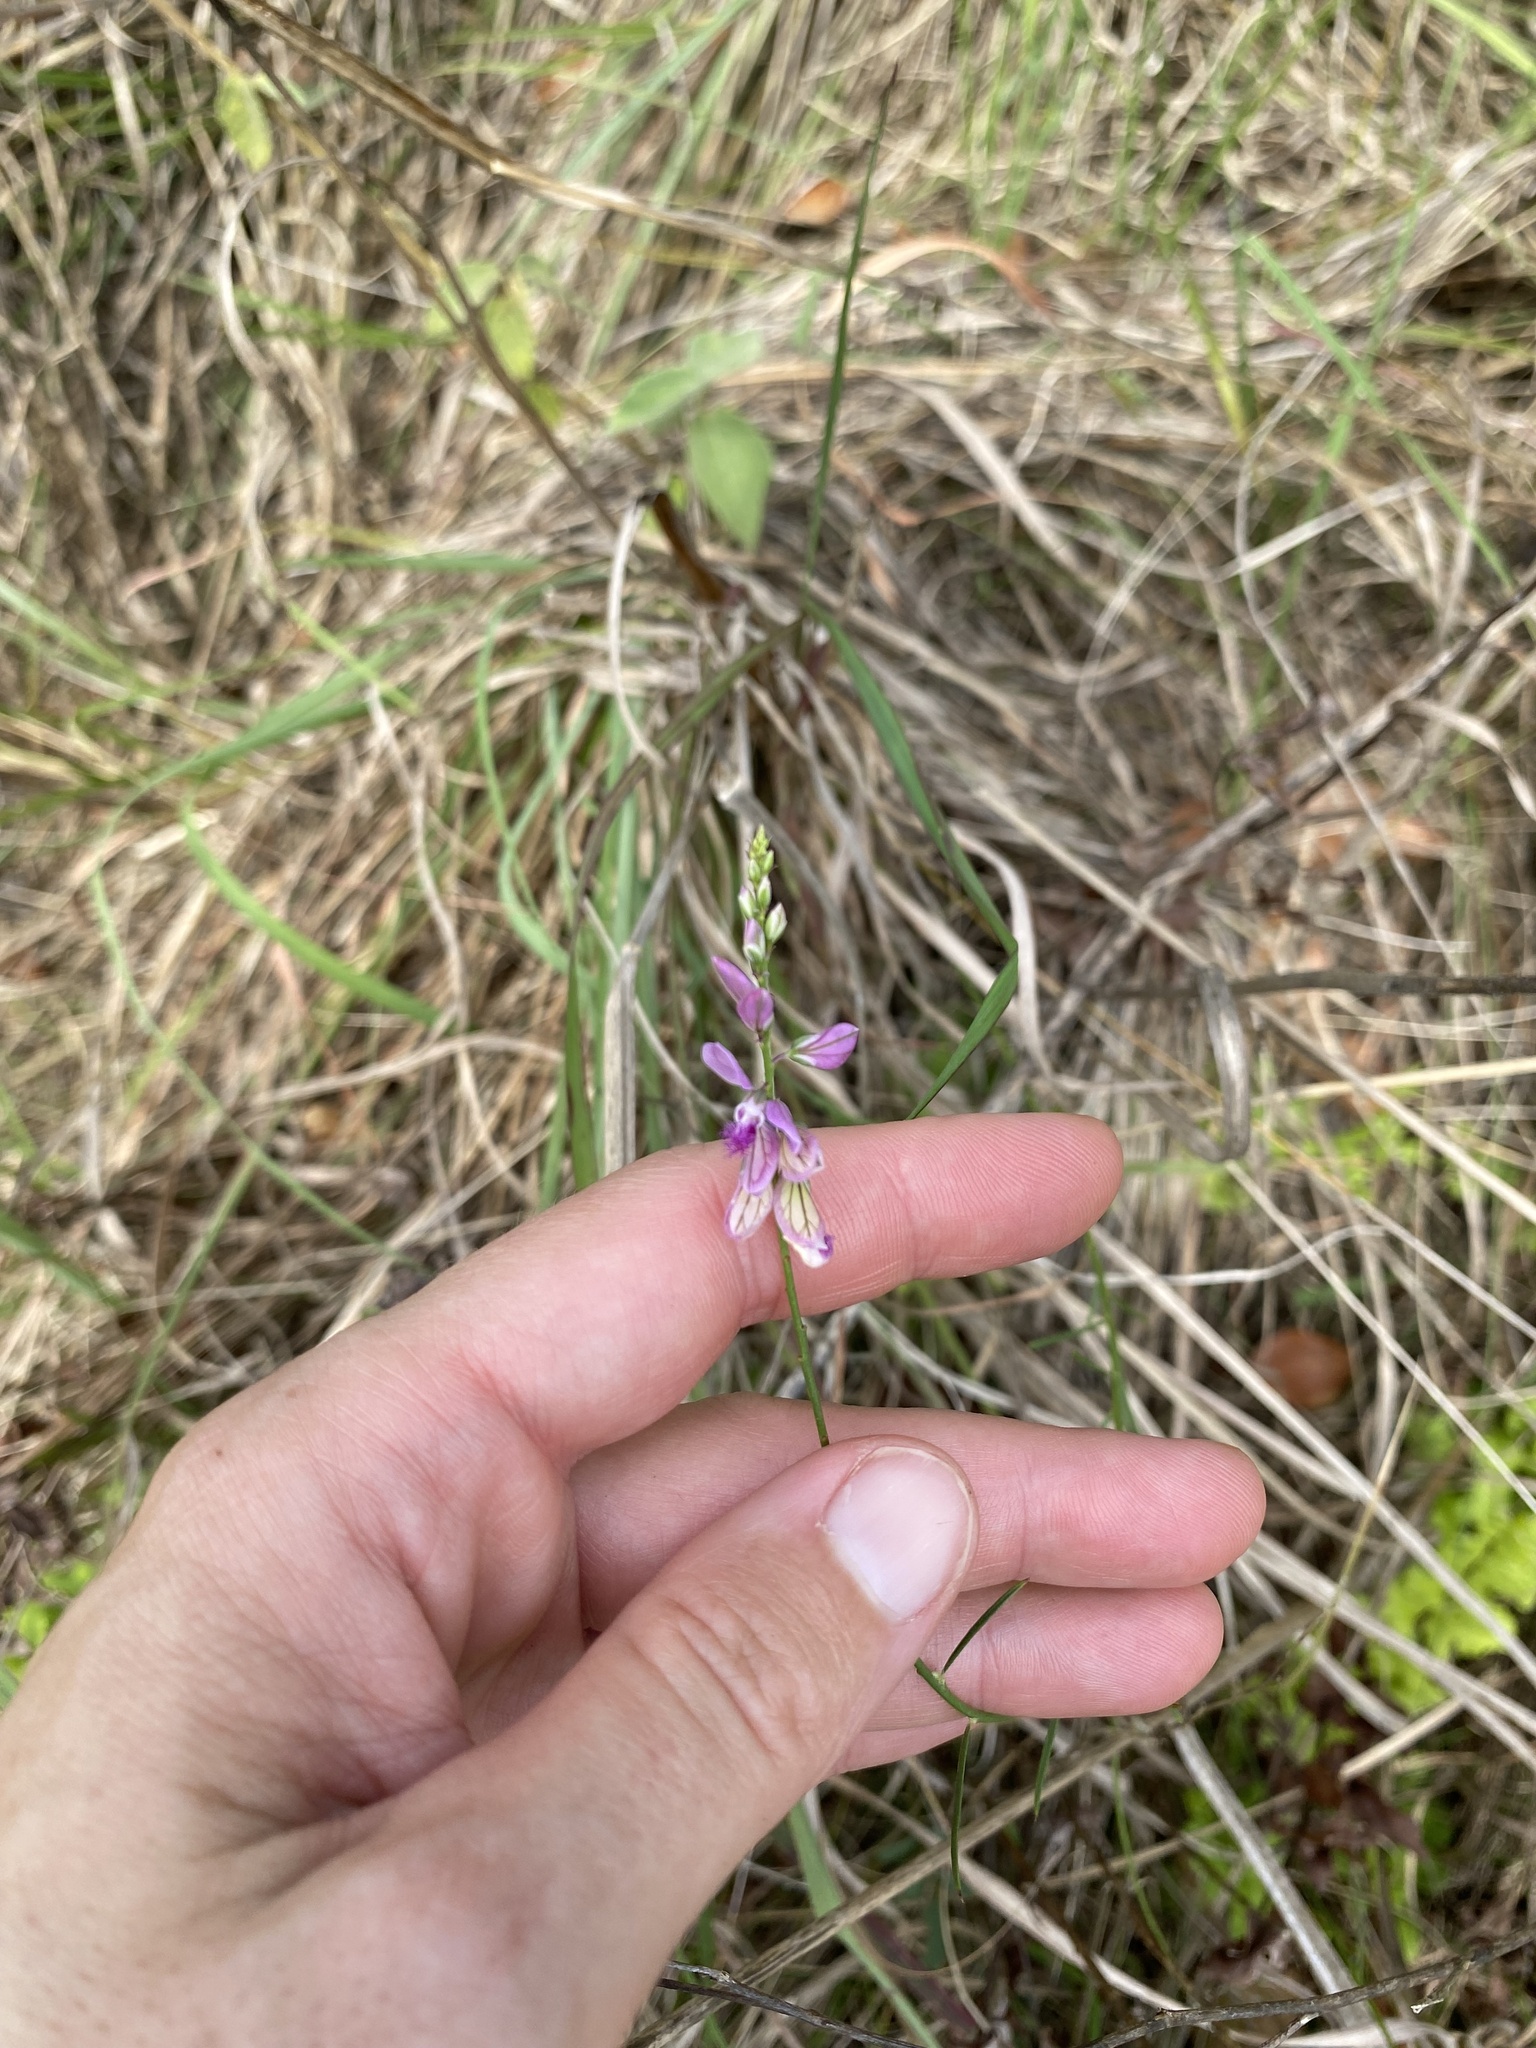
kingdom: Plantae
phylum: Tracheophyta
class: Magnoliopsida
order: Fabales
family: Polygalaceae
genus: Polygala
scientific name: Polygala hottentotta
